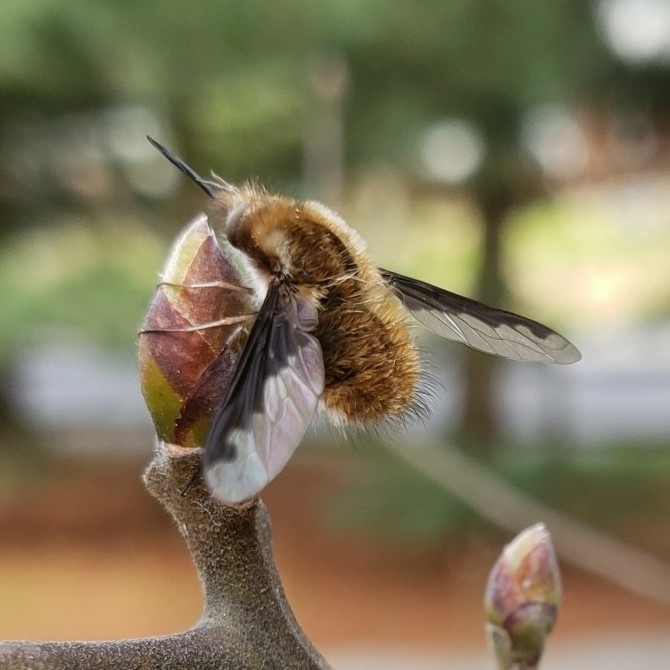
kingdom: Animalia
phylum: Arthropoda
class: Insecta
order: Diptera
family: Bombyliidae
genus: Bombylius
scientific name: Bombylius major
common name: Bee fly
